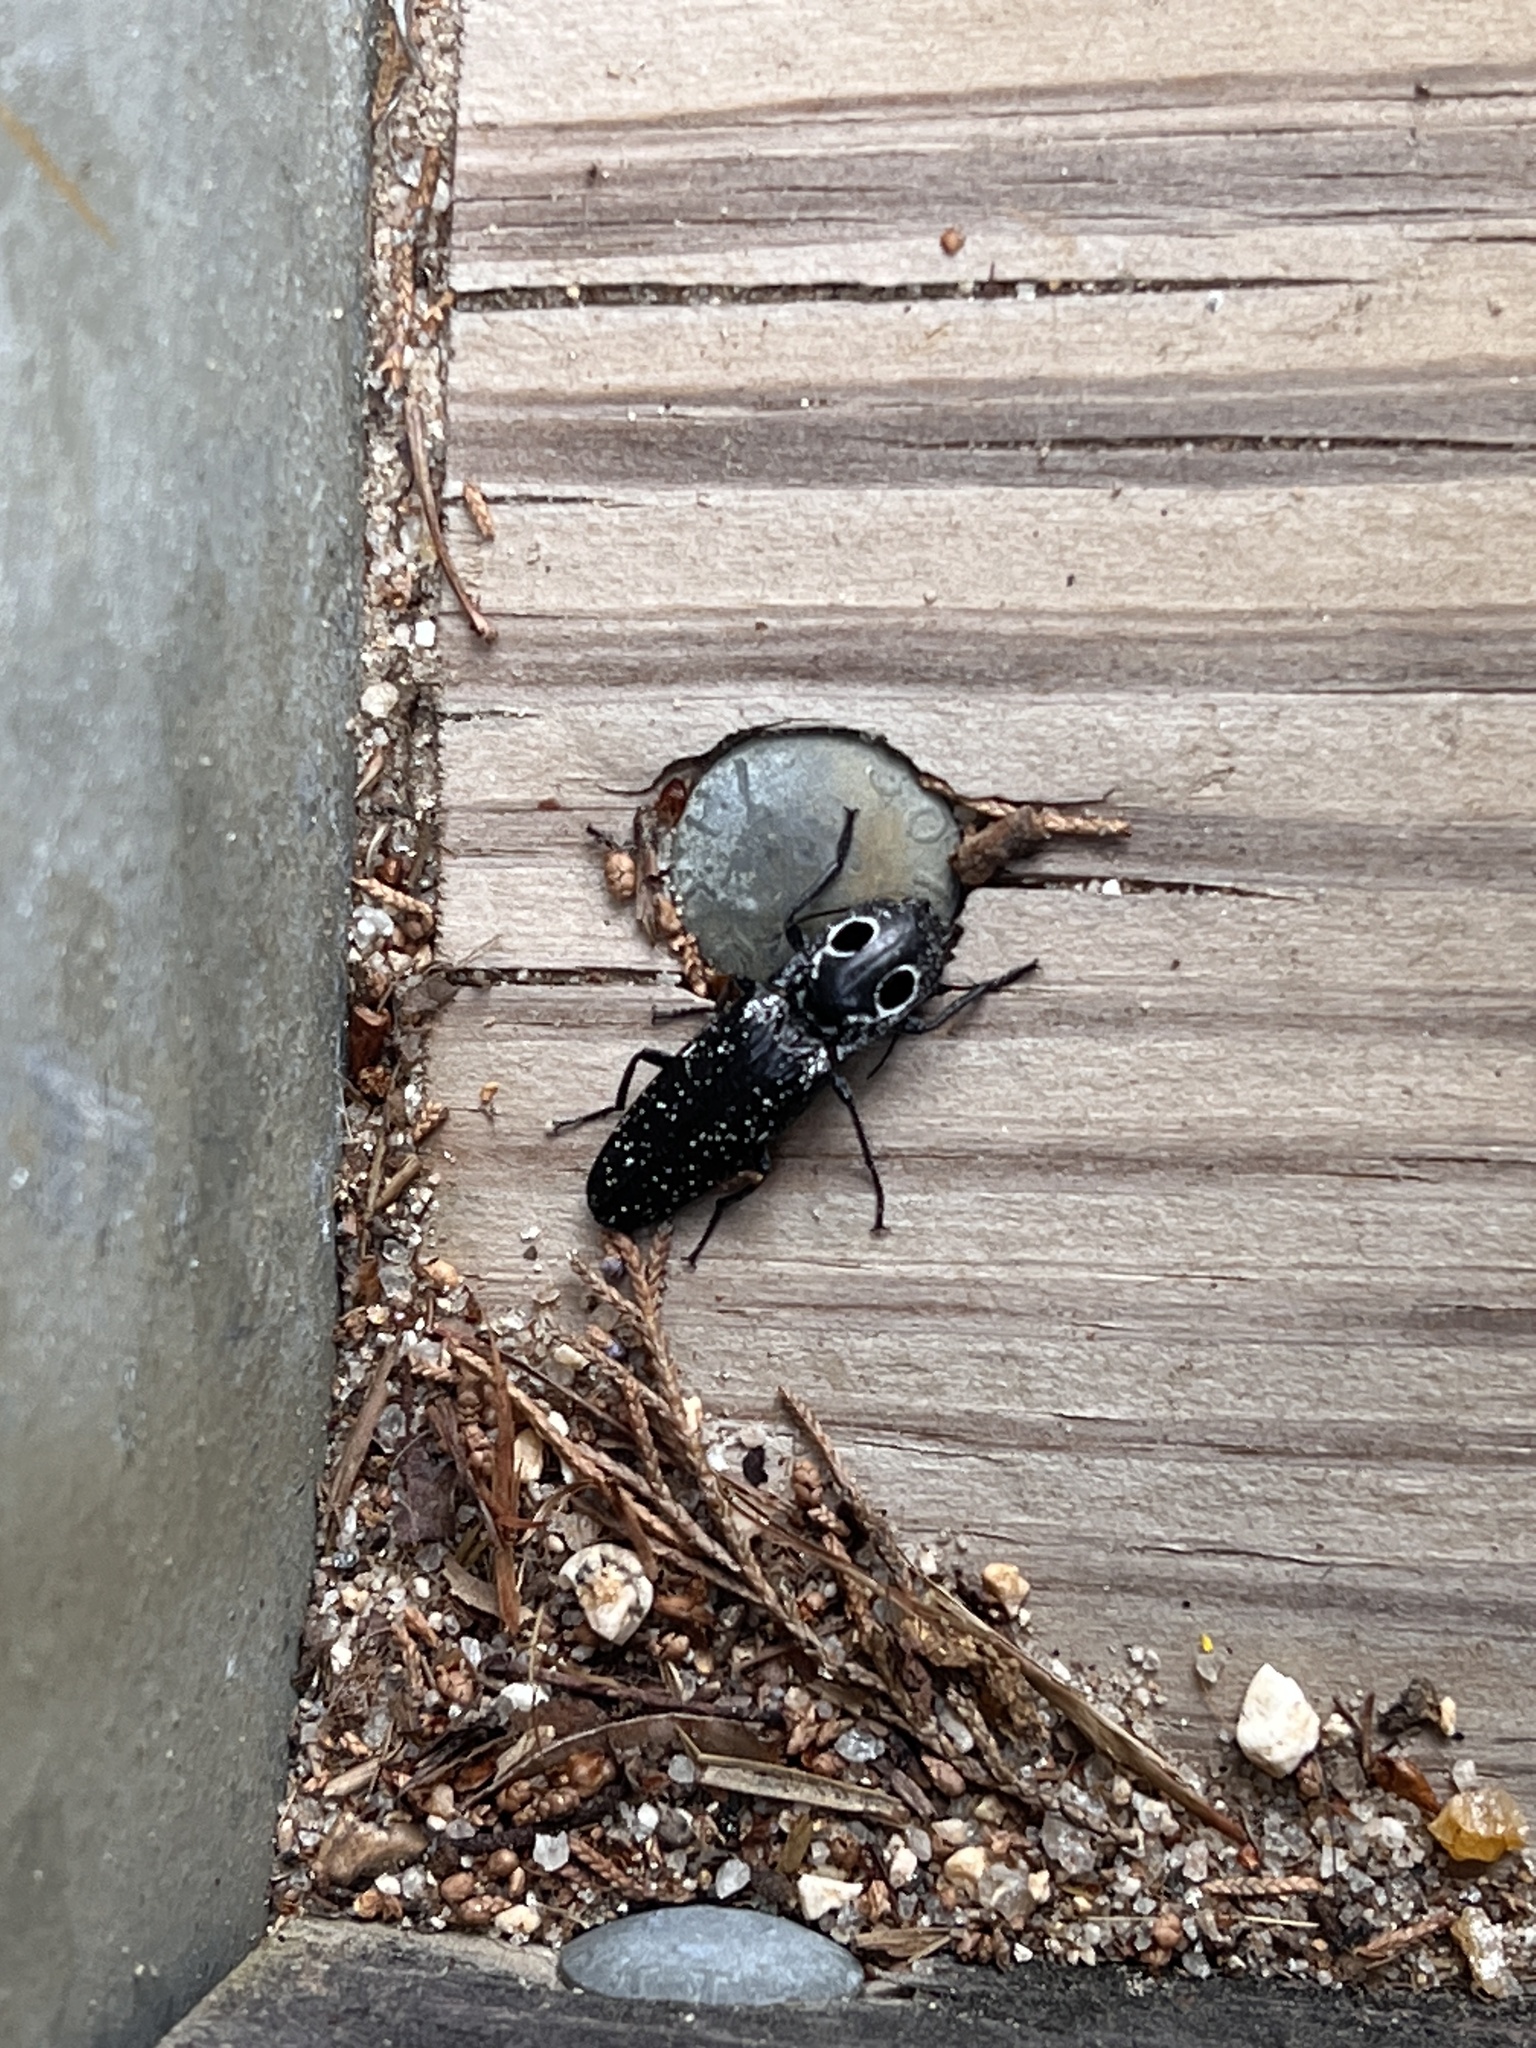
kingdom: Animalia
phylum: Arthropoda
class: Insecta
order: Coleoptera
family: Elateridae
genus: Alaus
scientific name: Alaus oculatus
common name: Eastern eyed click beetle
